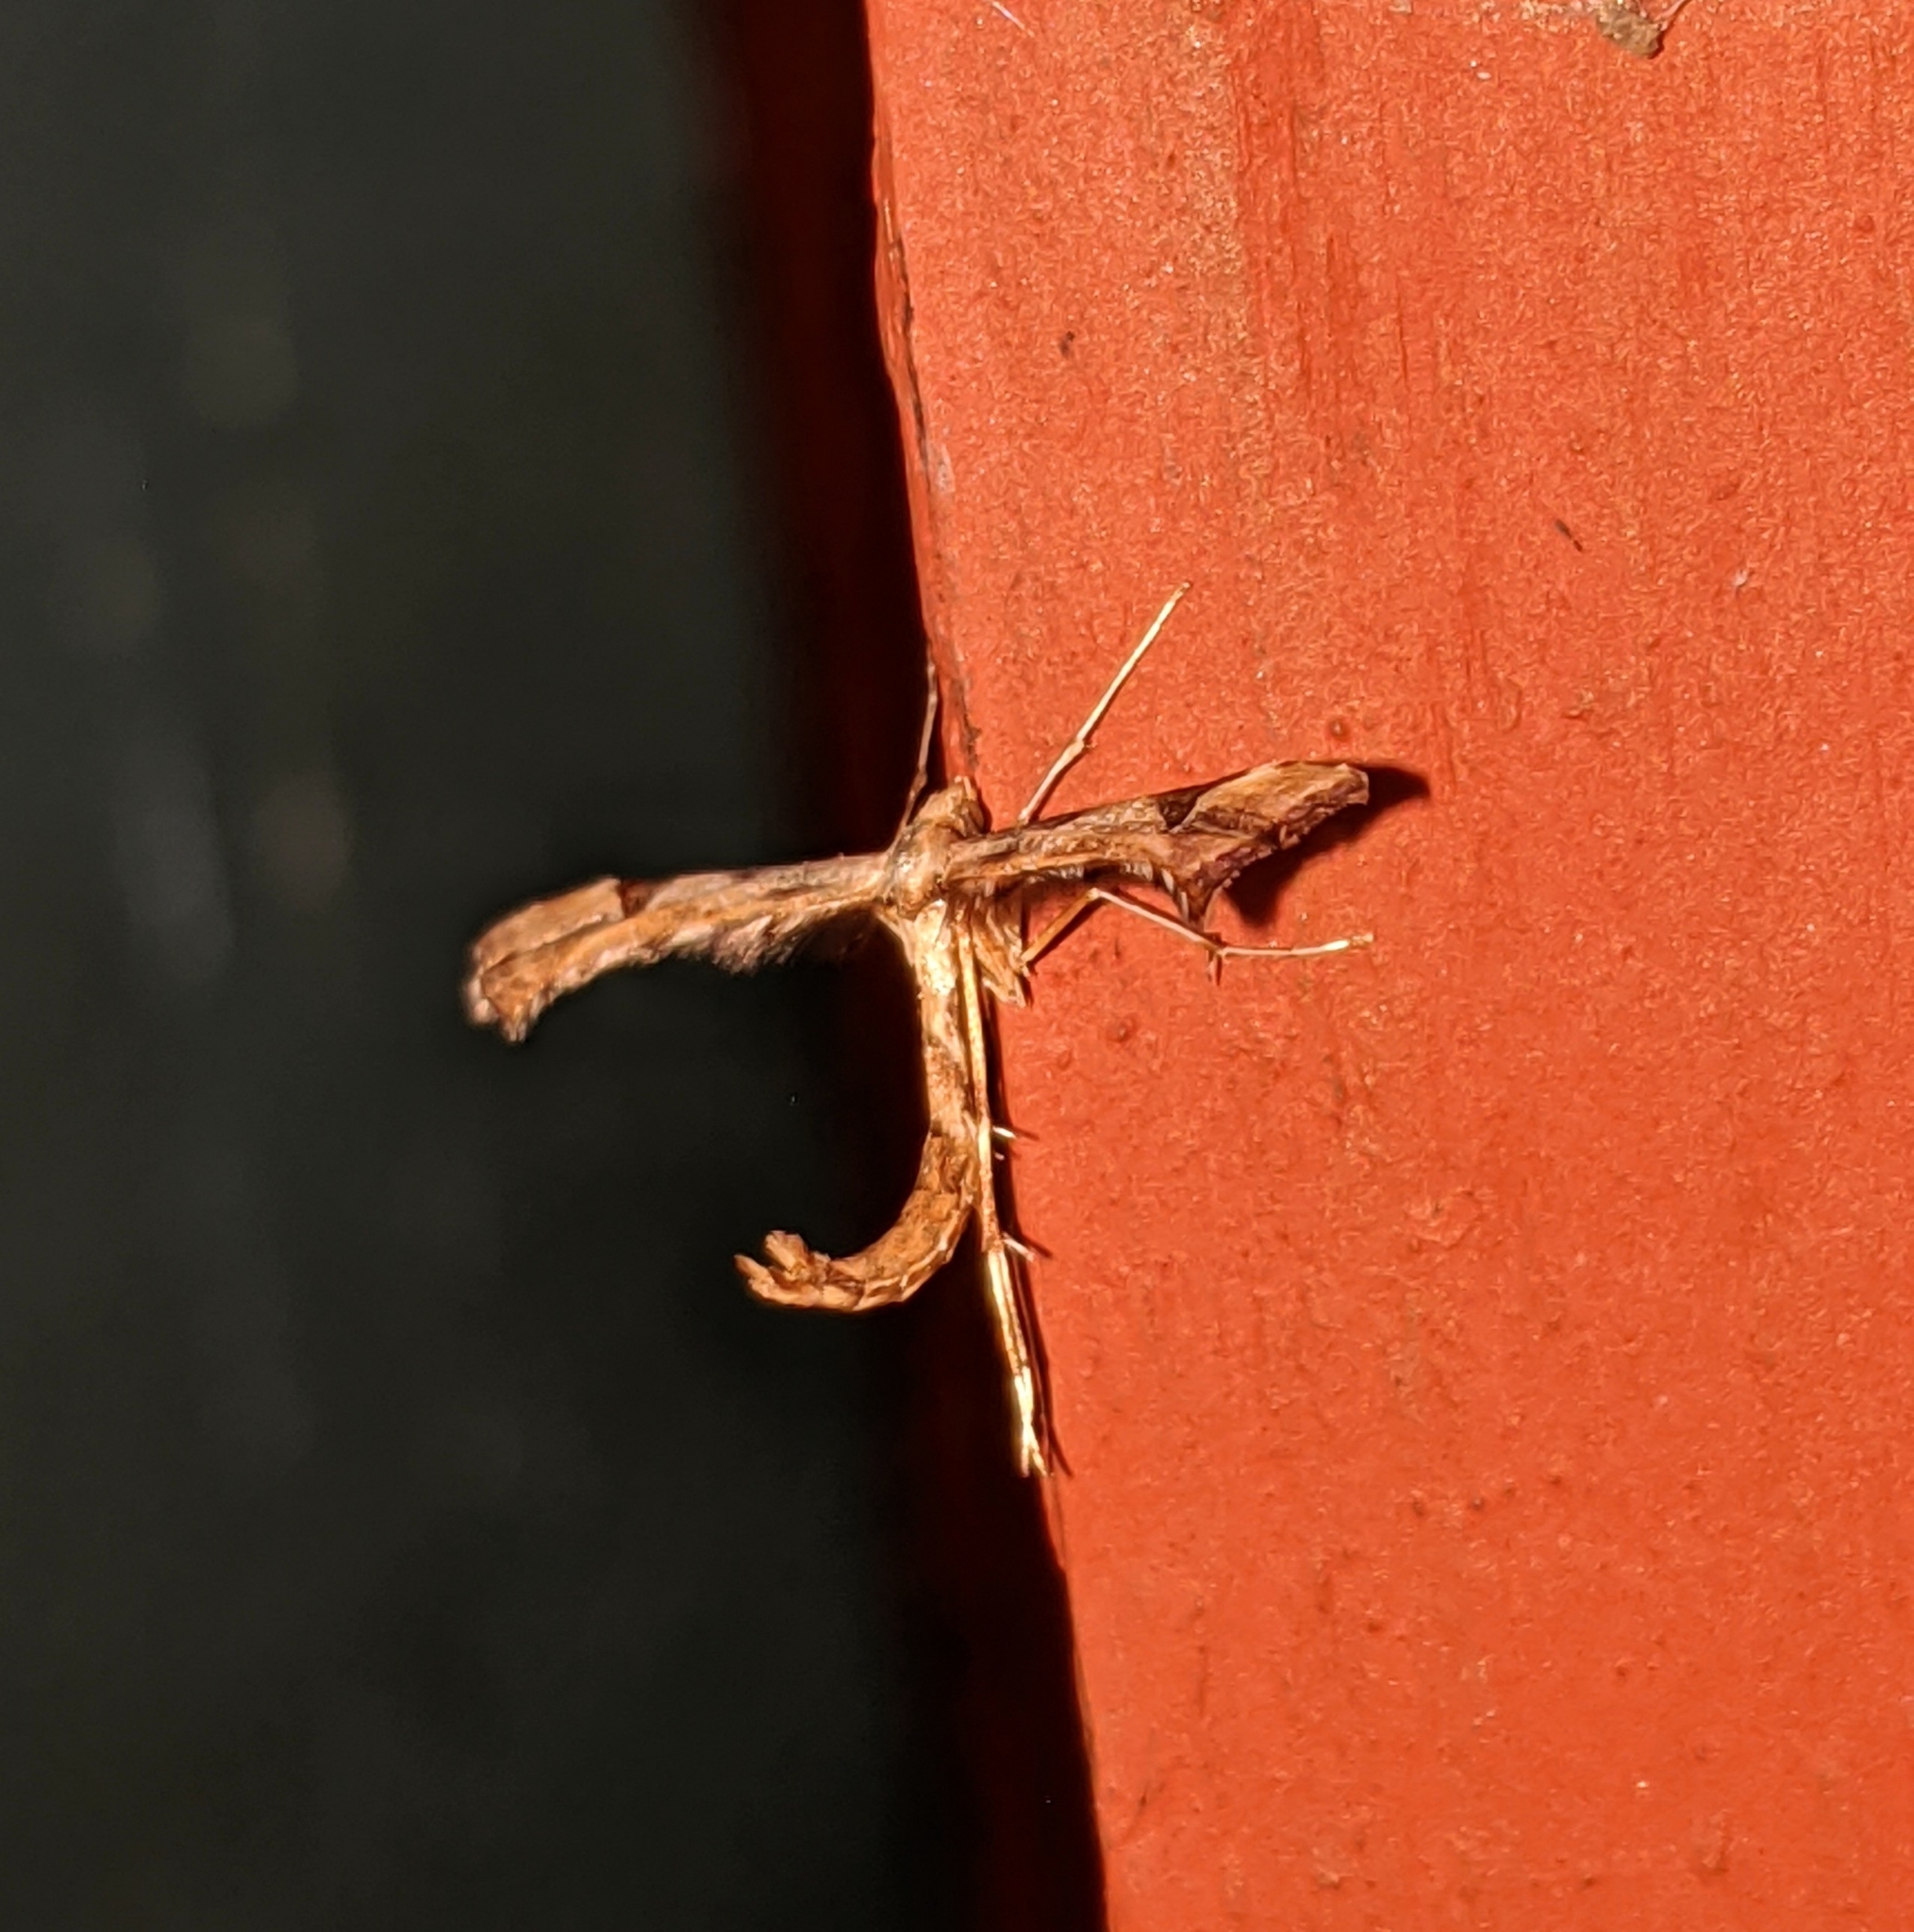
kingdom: Animalia
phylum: Arthropoda
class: Insecta
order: Lepidoptera
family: Pterophoridae
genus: Platyptilia
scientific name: Platyptilia carduidactylus
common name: Artichoke plume moth
